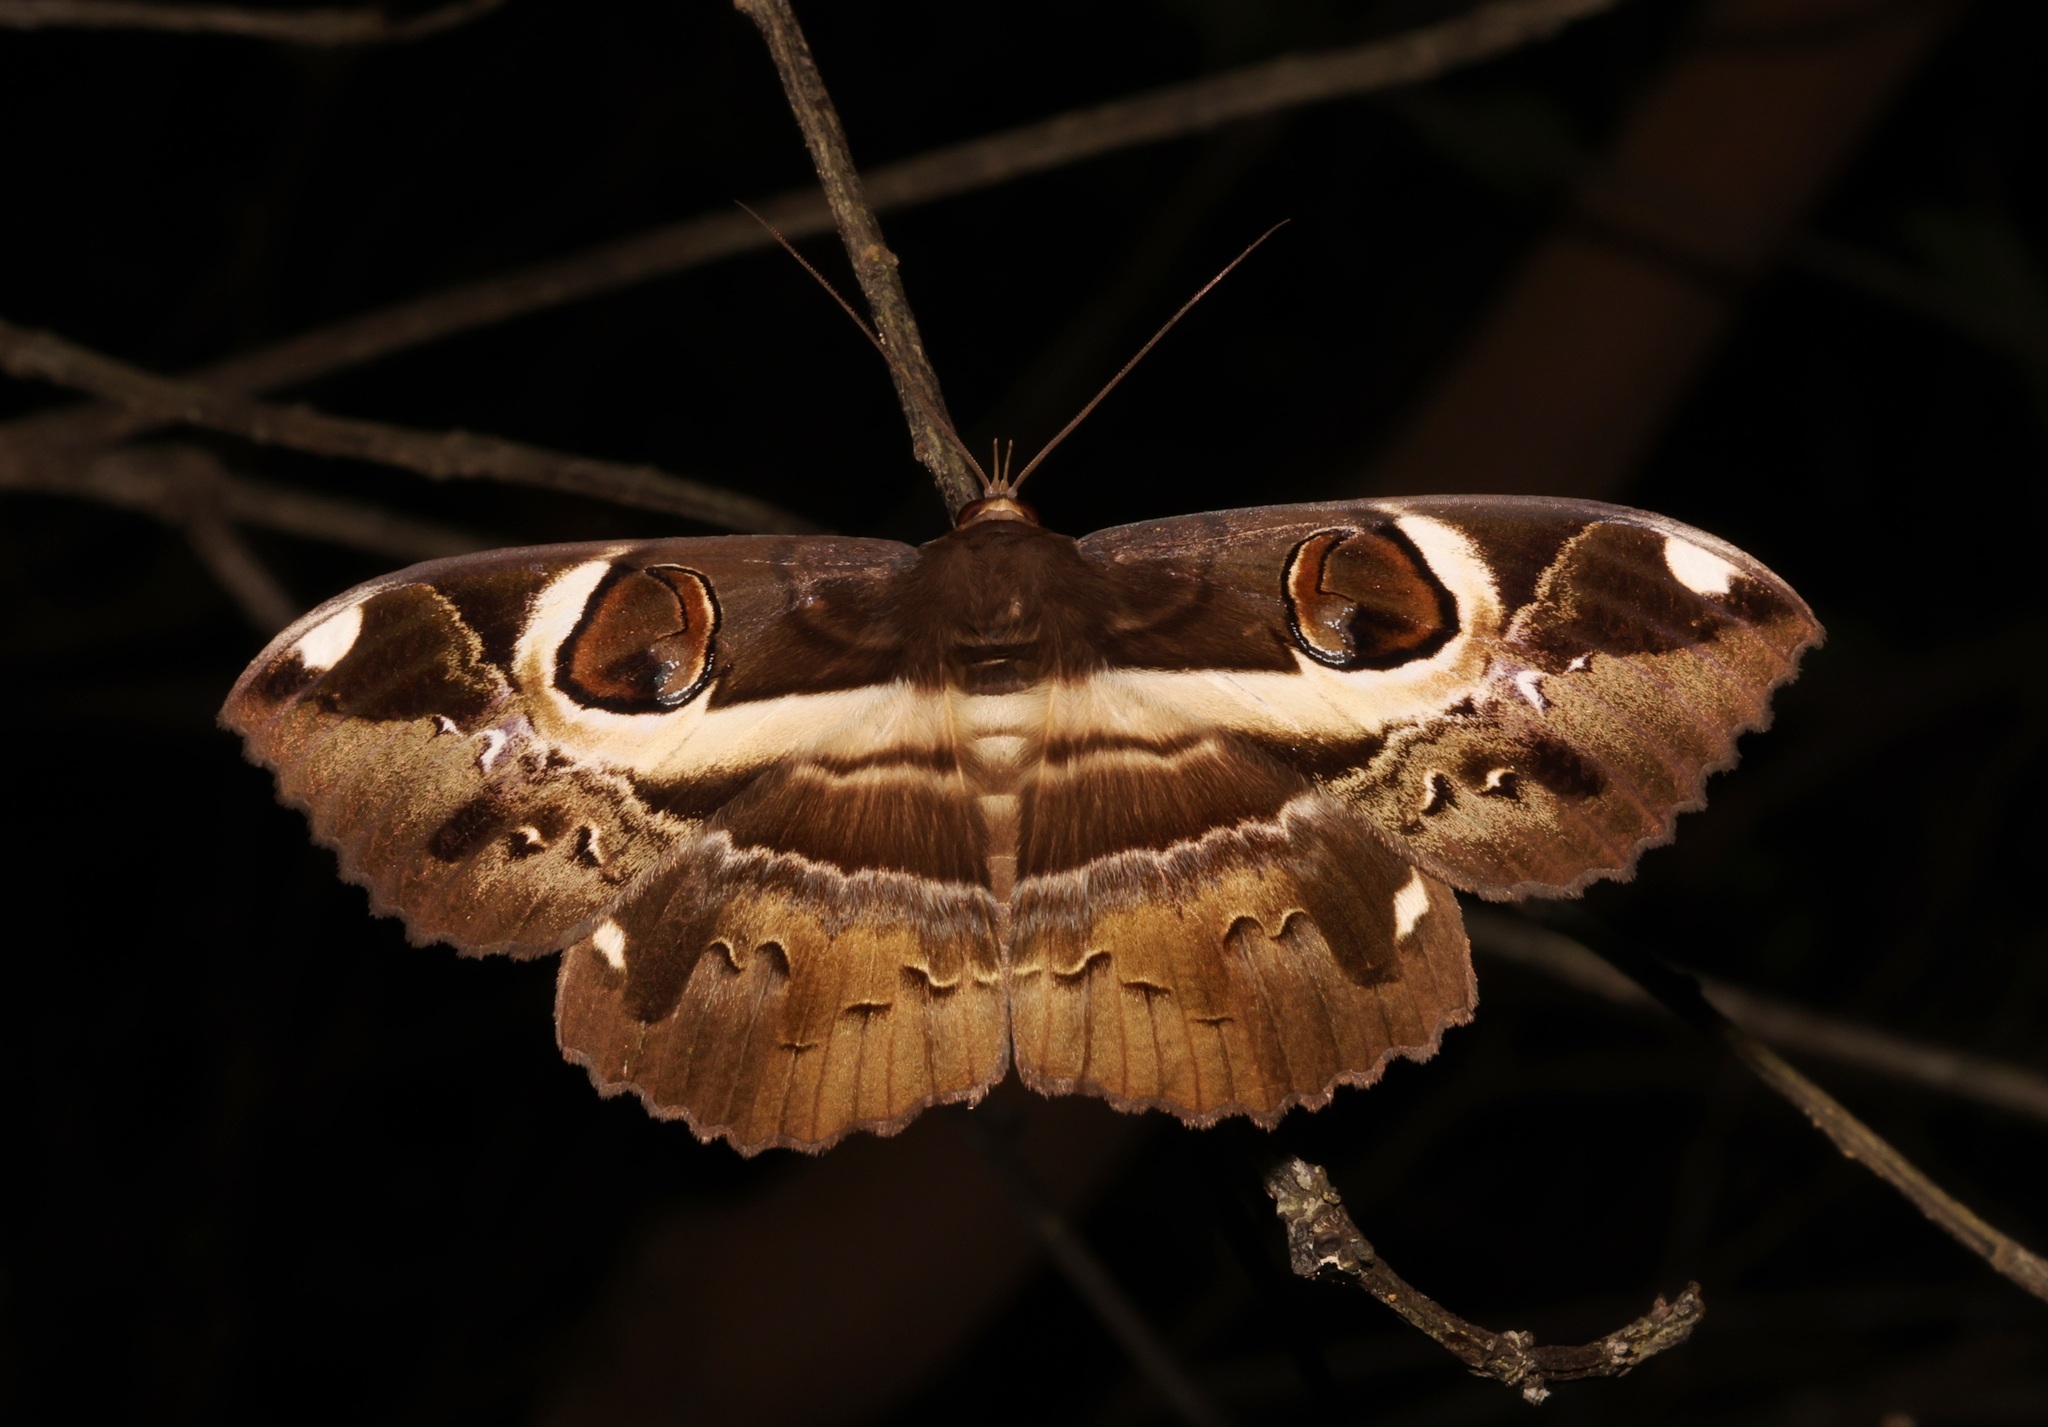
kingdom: Animalia
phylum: Arthropoda
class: Insecta
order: Lepidoptera
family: Erebidae
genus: Erebus
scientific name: Erebus ephesperis
